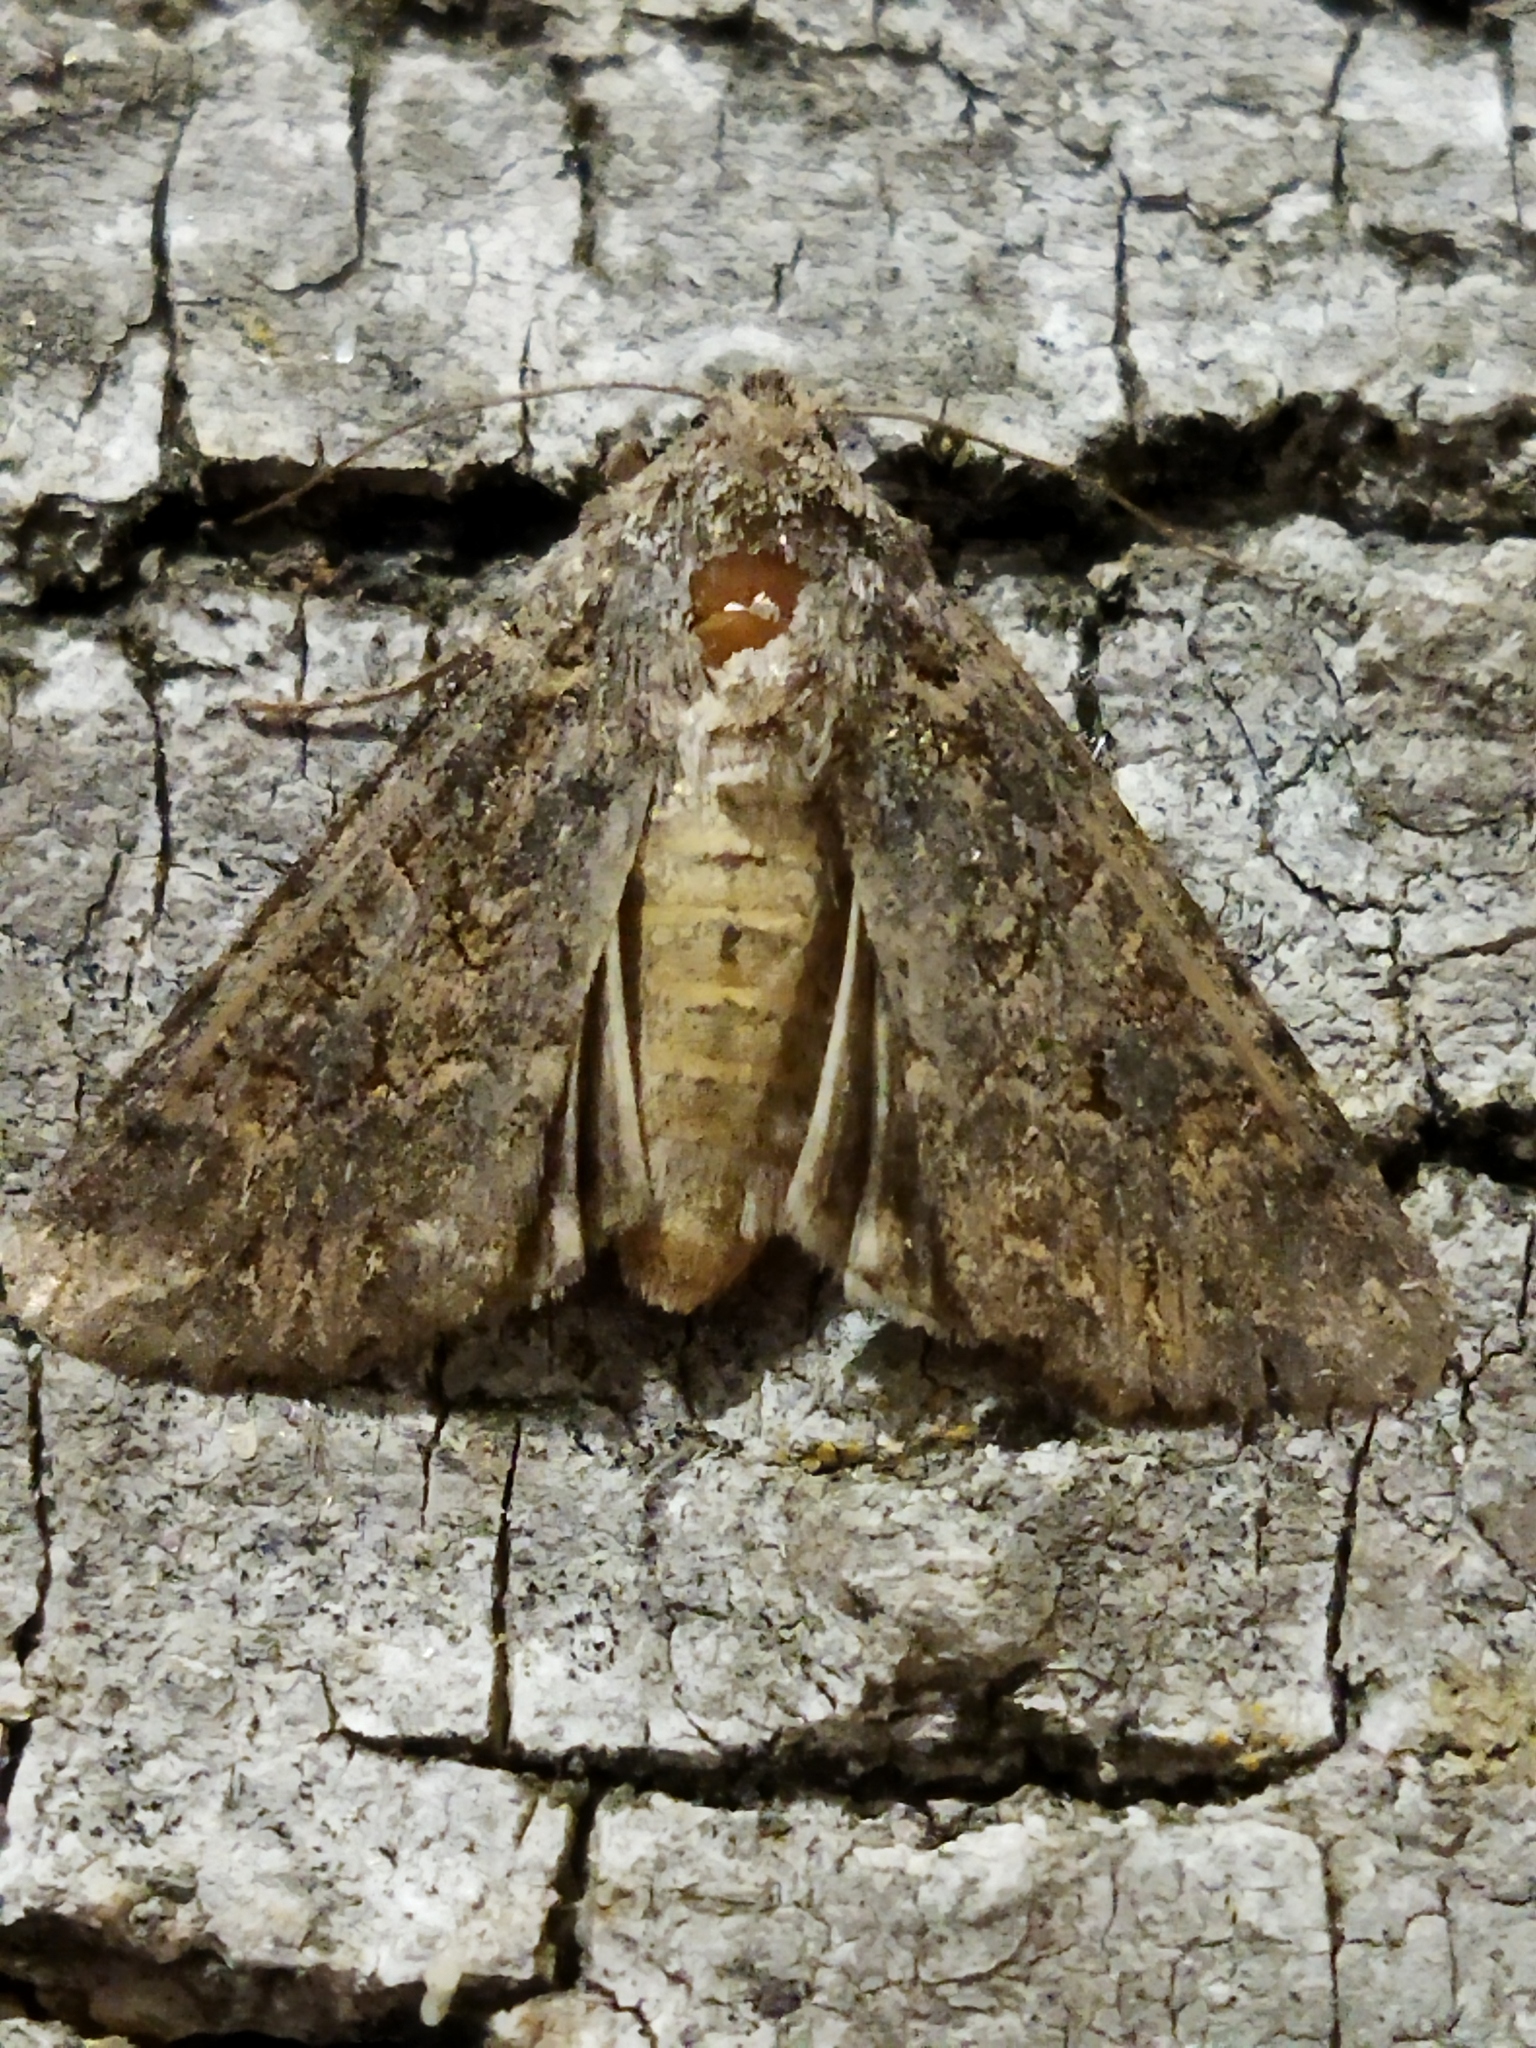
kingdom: Animalia
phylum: Arthropoda
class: Insecta
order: Lepidoptera
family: Noctuidae
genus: Anarta
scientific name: Anarta trifolii
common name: Clover cutworm moth
